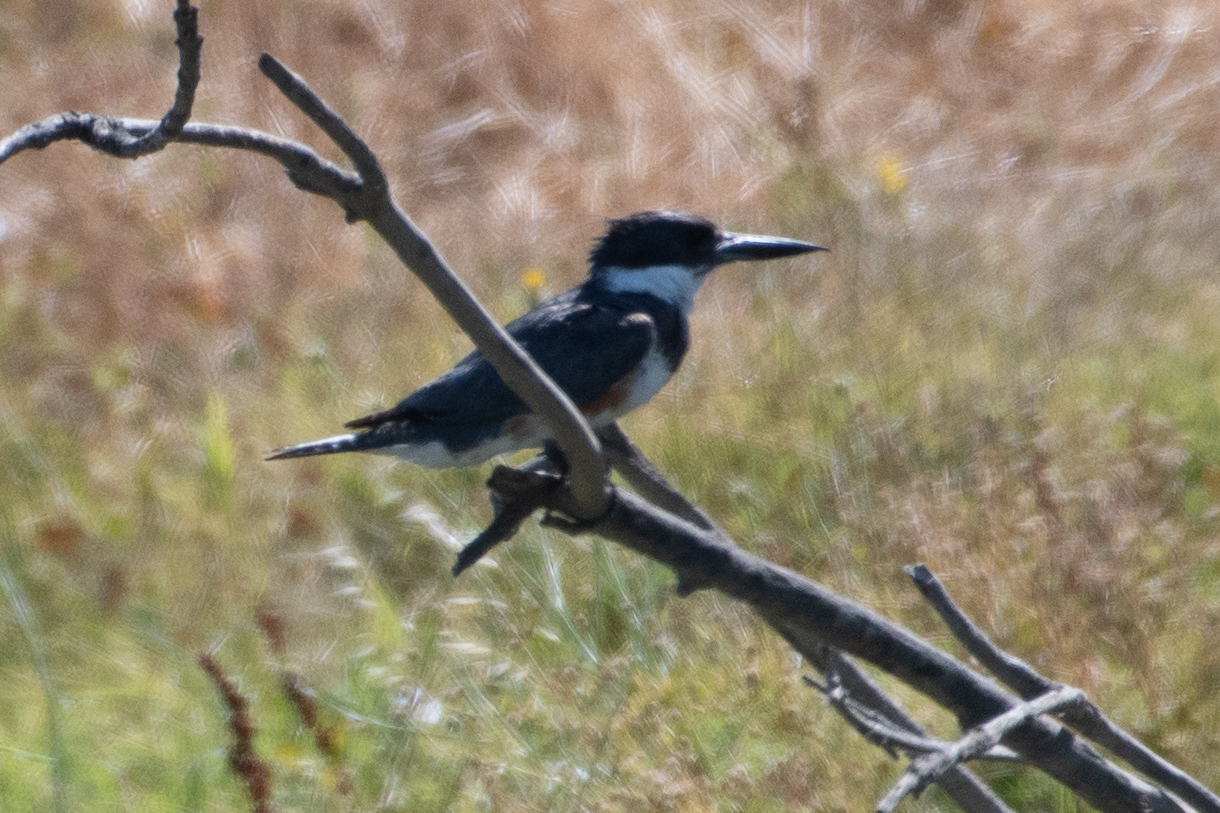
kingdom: Animalia
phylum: Chordata
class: Aves
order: Coraciiformes
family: Alcedinidae
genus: Megaceryle
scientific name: Megaceryle alcyon
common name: Belted kingfisher
